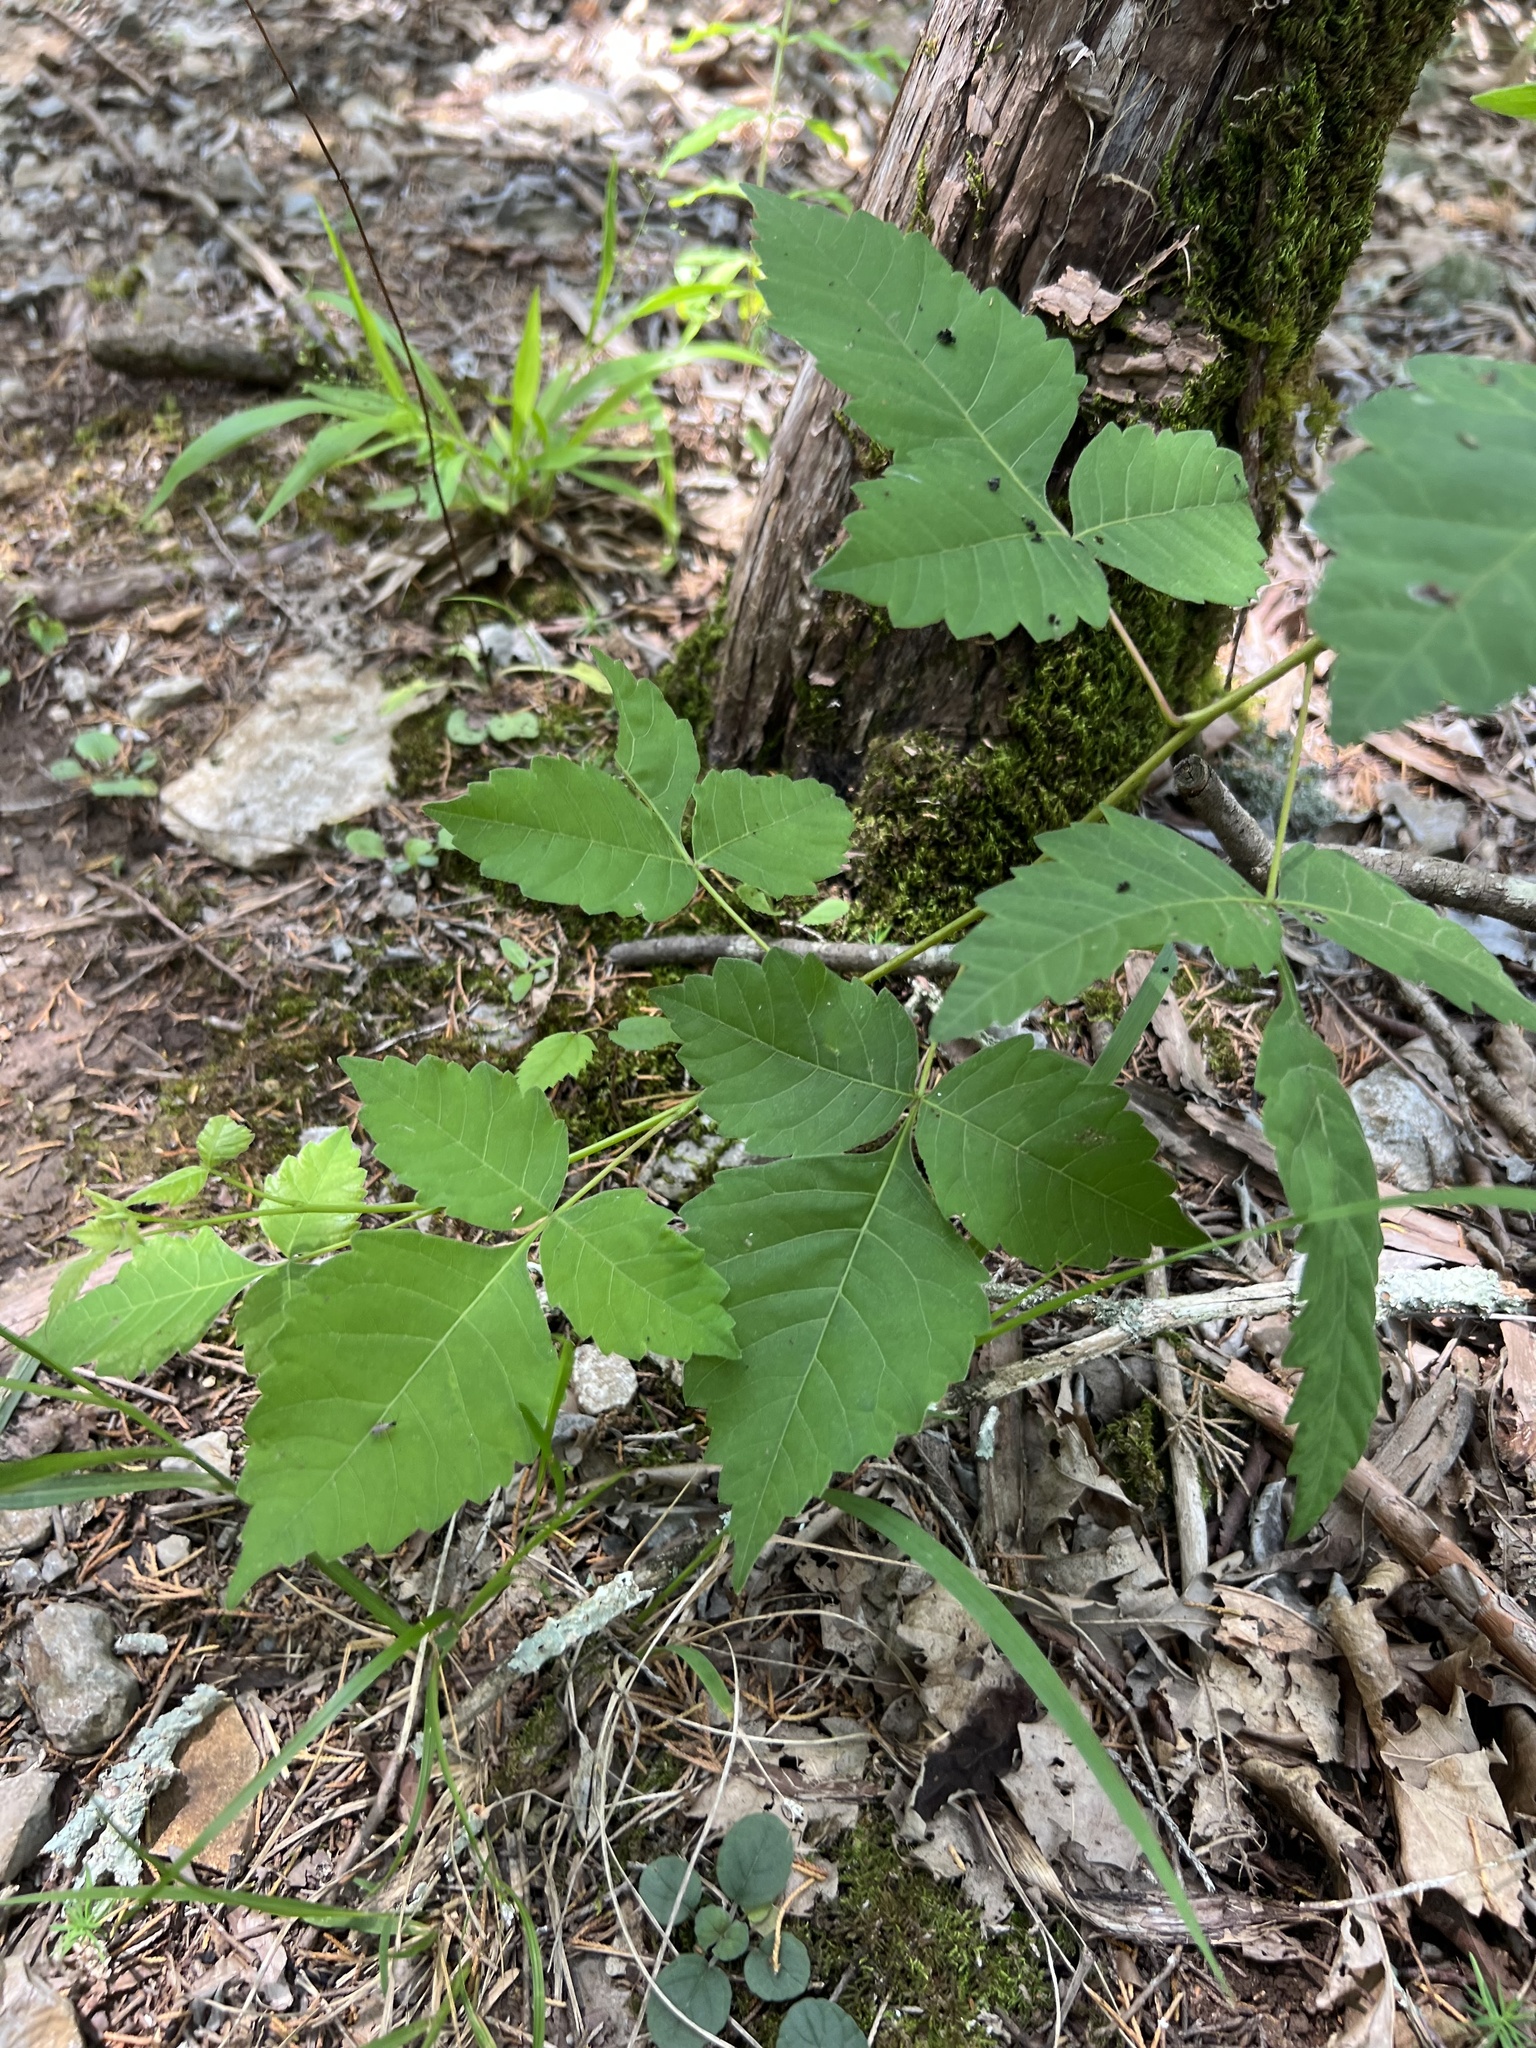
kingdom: Plantae
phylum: Tracheophyta
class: Magnoliopsida
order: Sapindales
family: Anacardiaceae
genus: Toxicodendron
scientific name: Toxicodendron radicans
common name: Poison ivy
